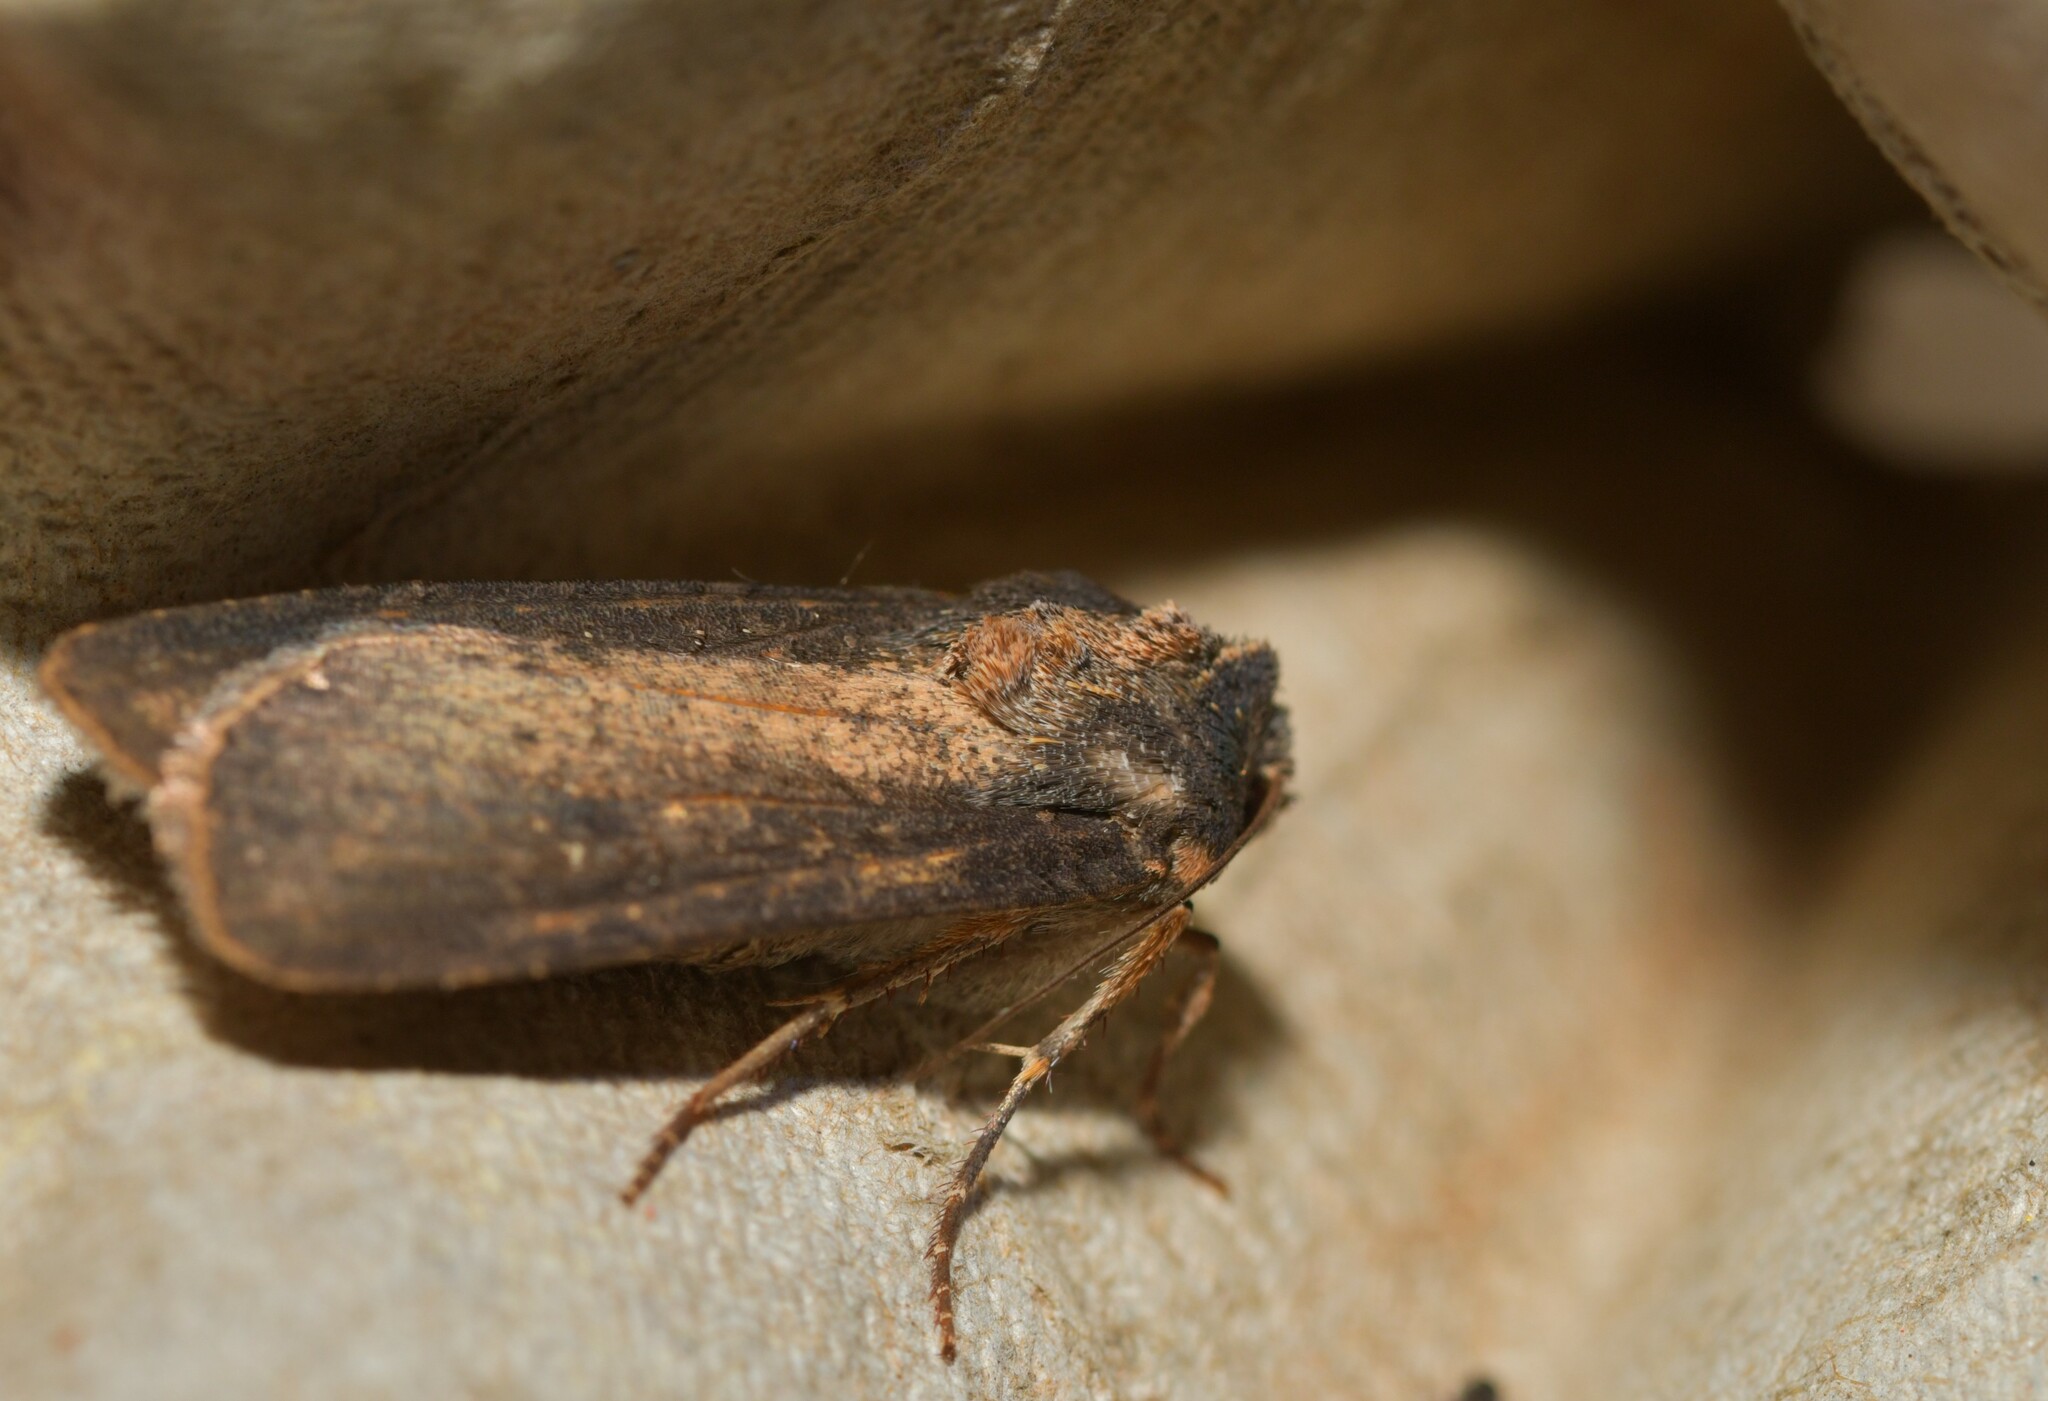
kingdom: Animalia
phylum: Arthropoda
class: Insecta
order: Lepidoptera
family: Noctuidae
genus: Peridroma
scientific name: Peridroma saucia
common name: Pearly underwing
